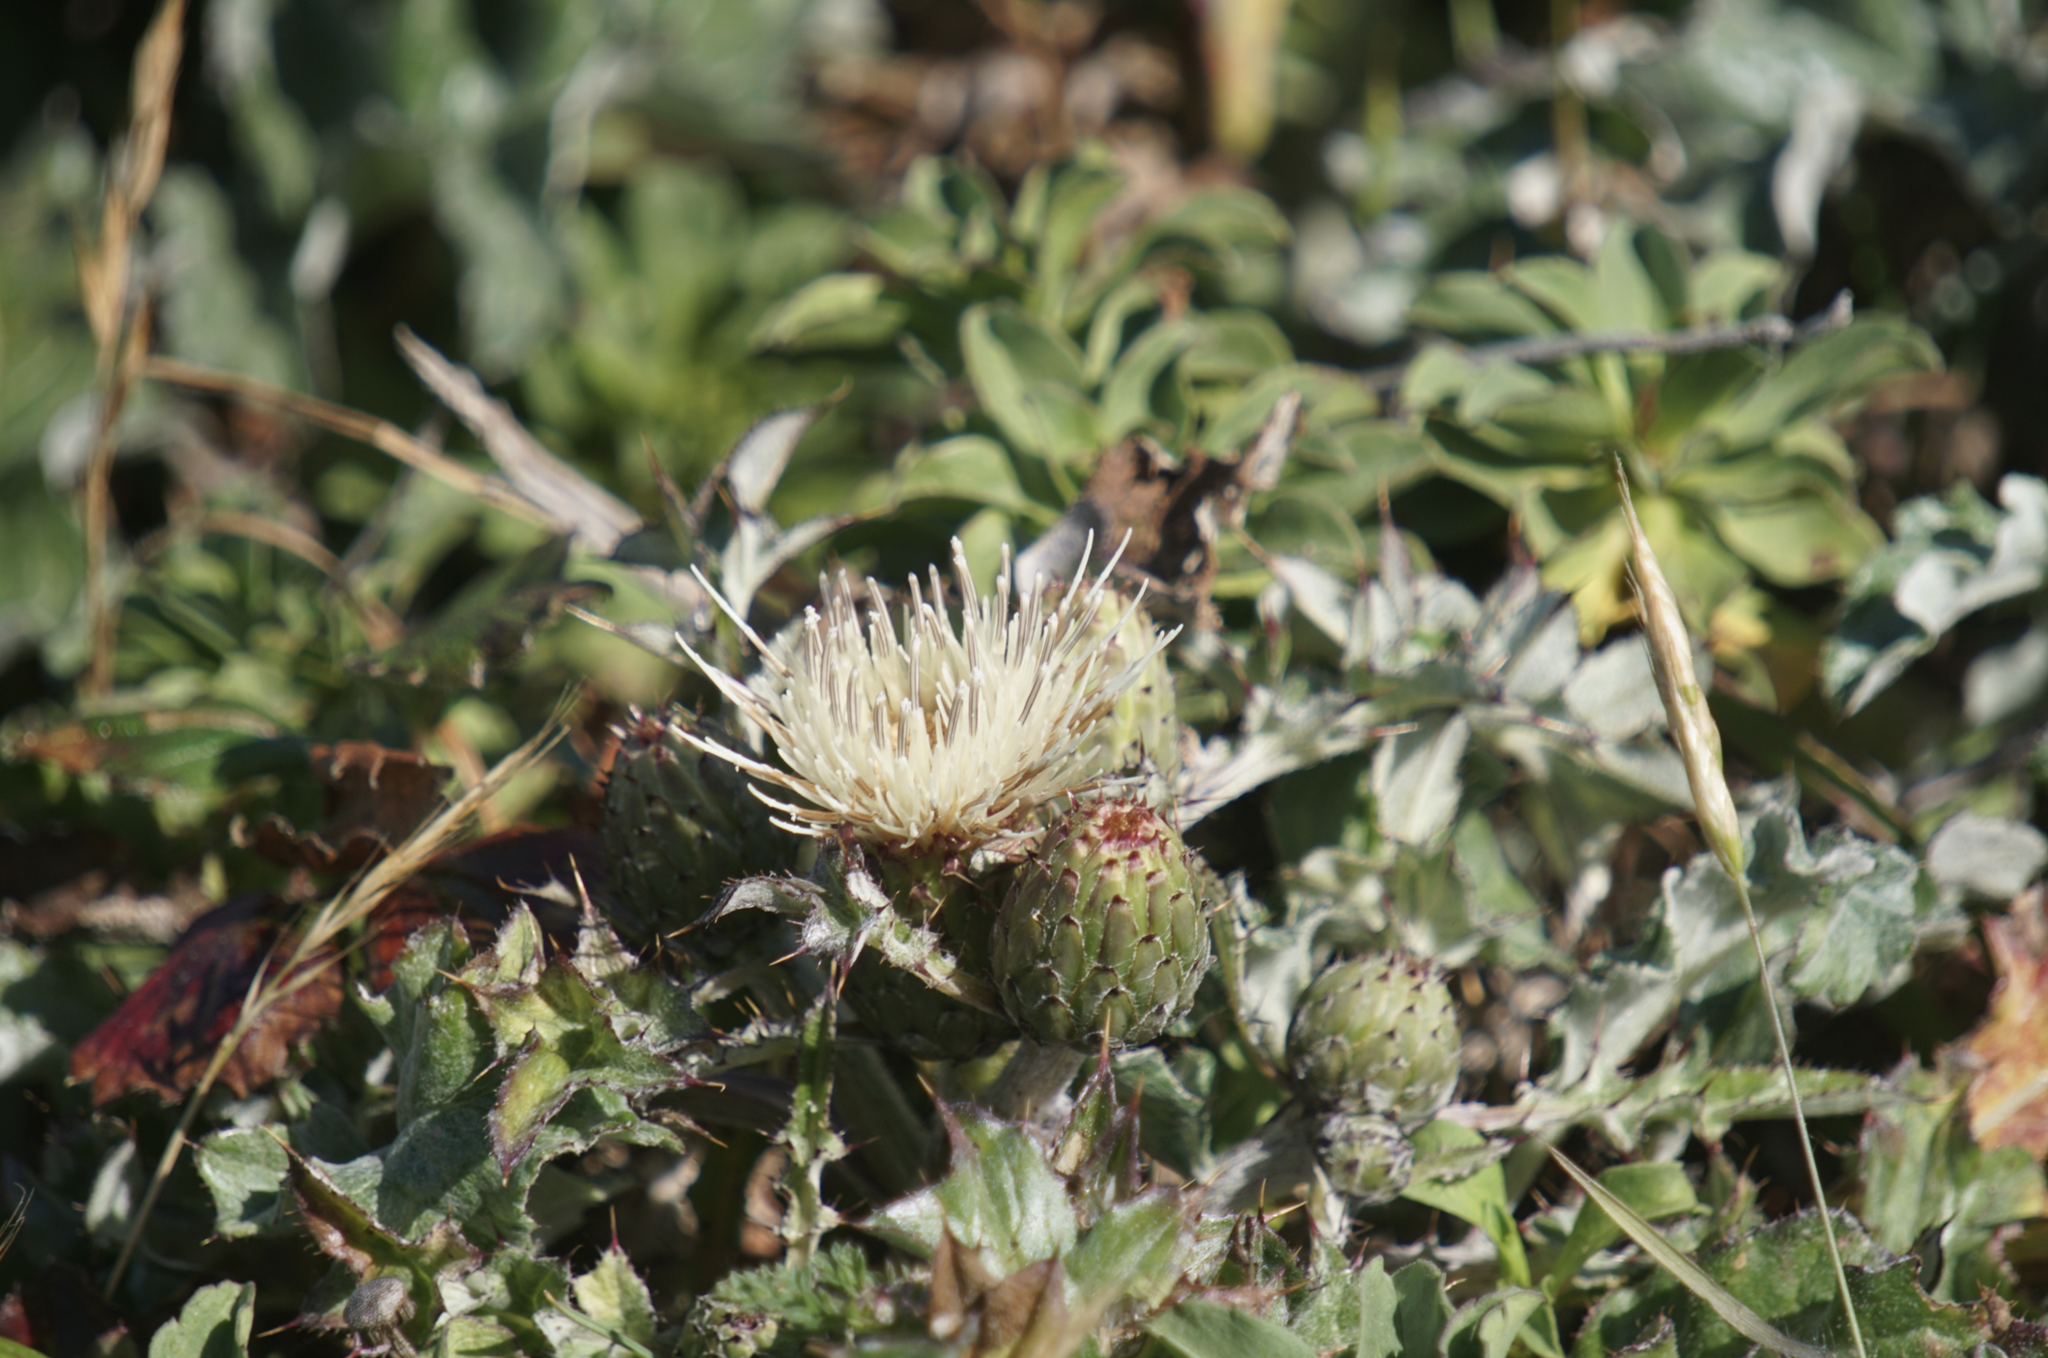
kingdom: Plantae
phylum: Tracheophyta
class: Magnoliopsida
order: Asterales
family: Asteraceae
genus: Cirsium
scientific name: Cirsium quercetorum
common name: Alameda county thistle
